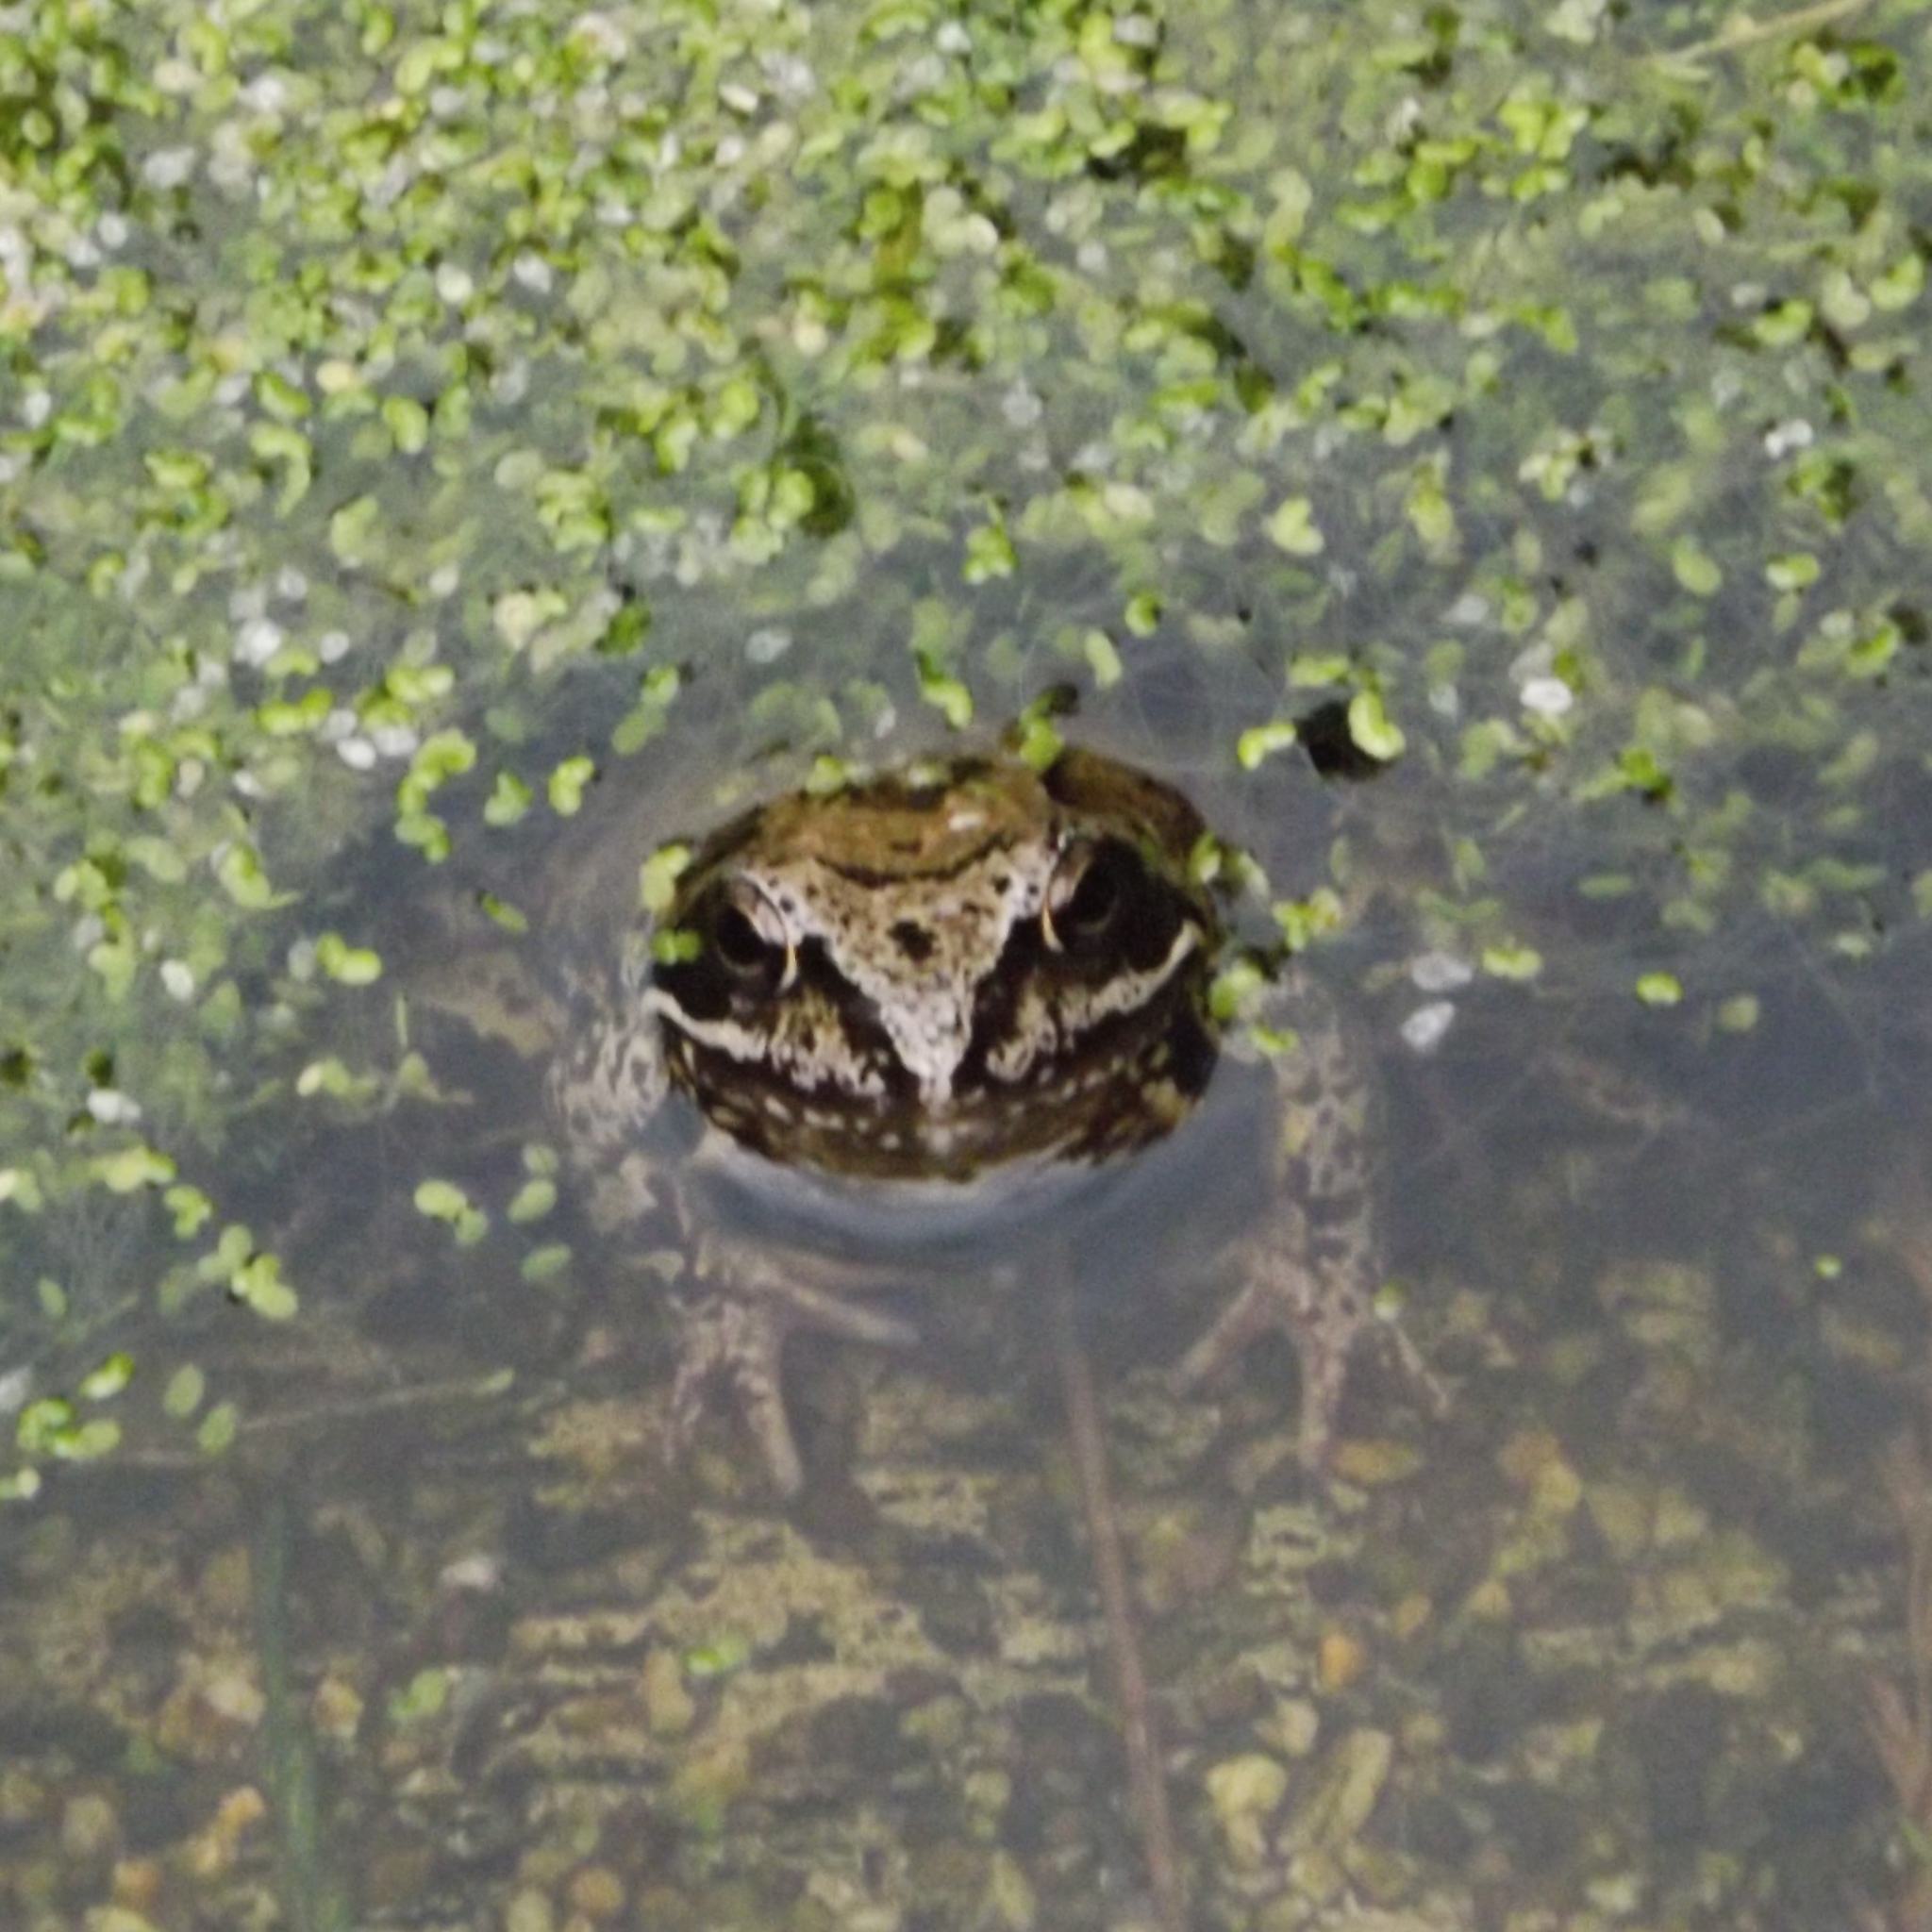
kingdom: Animalia
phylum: Chordata
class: Amphibia
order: Anura
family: Ranidae
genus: Rana
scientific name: Rana temporaria
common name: Common frog
